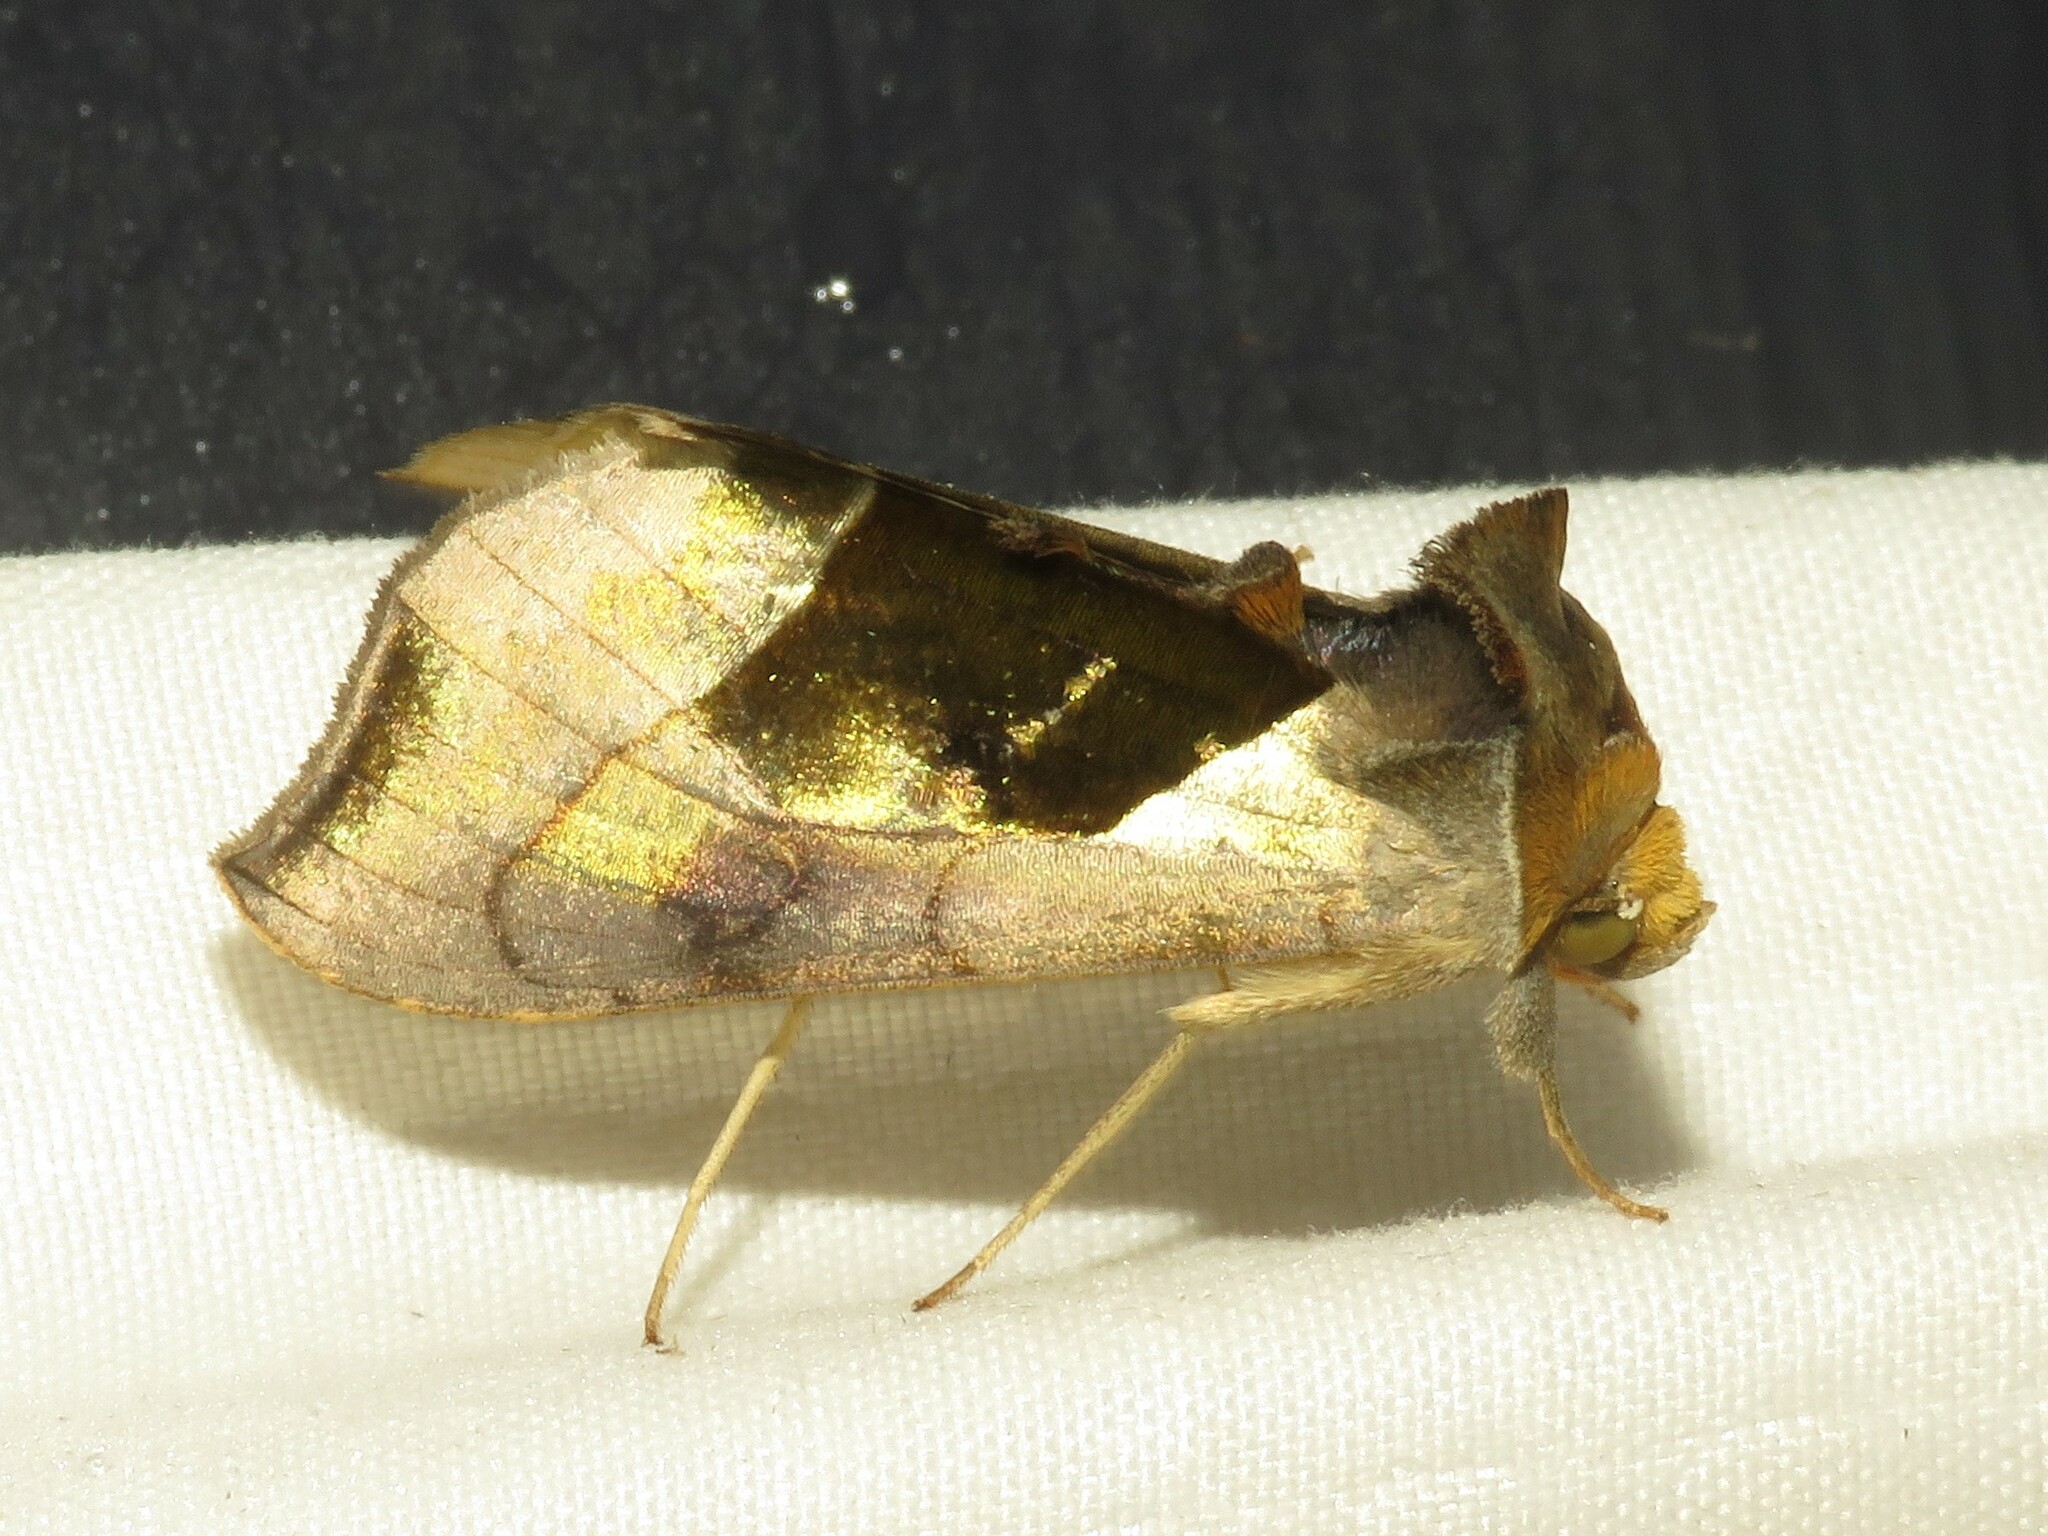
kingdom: Animalia
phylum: Arthropoda
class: Insecta
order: Lepidoptera
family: Noctuidae
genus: Diachrysia
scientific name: Diachrysia balluca
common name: Green-patched looper moth
